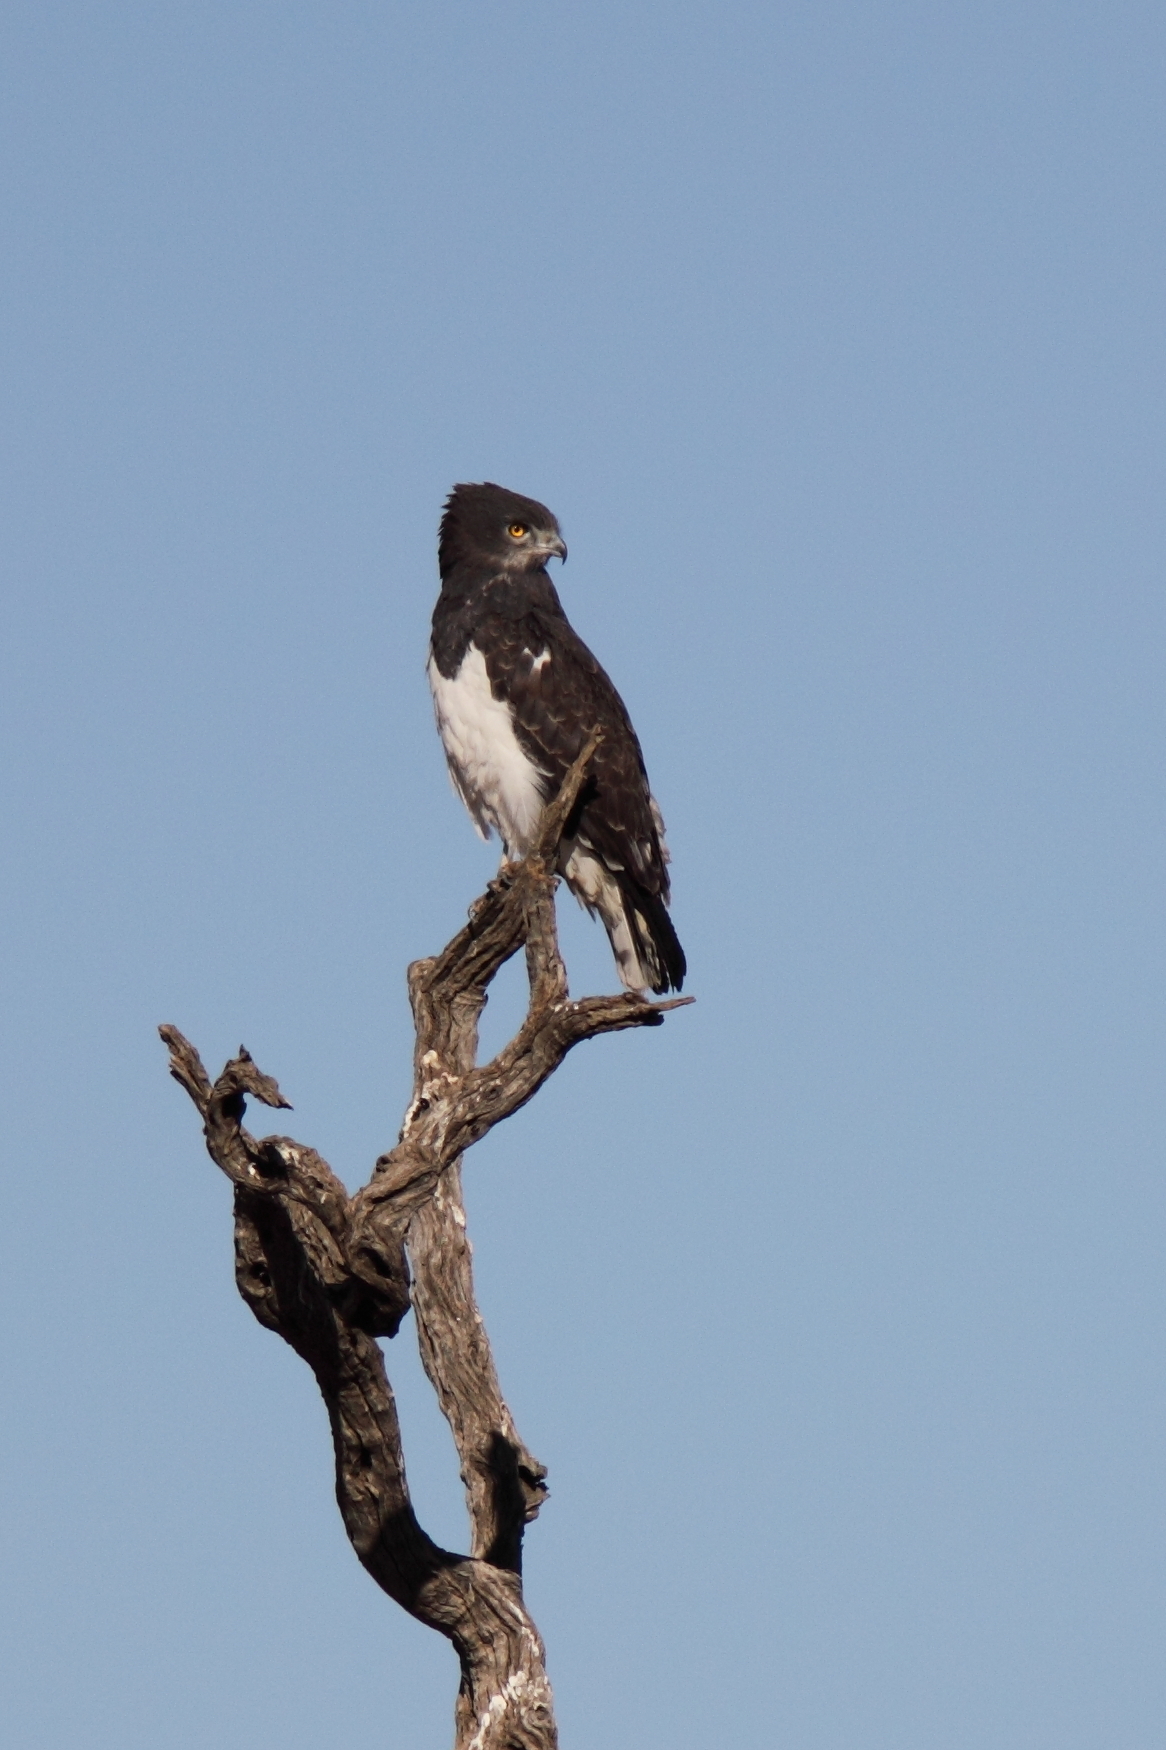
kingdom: Animalia
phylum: Chordata
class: Aves
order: Accipitriformes
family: Accipitridae
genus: Circaetus
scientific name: Circaetus pectoralis
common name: Black-chested snake eagle
